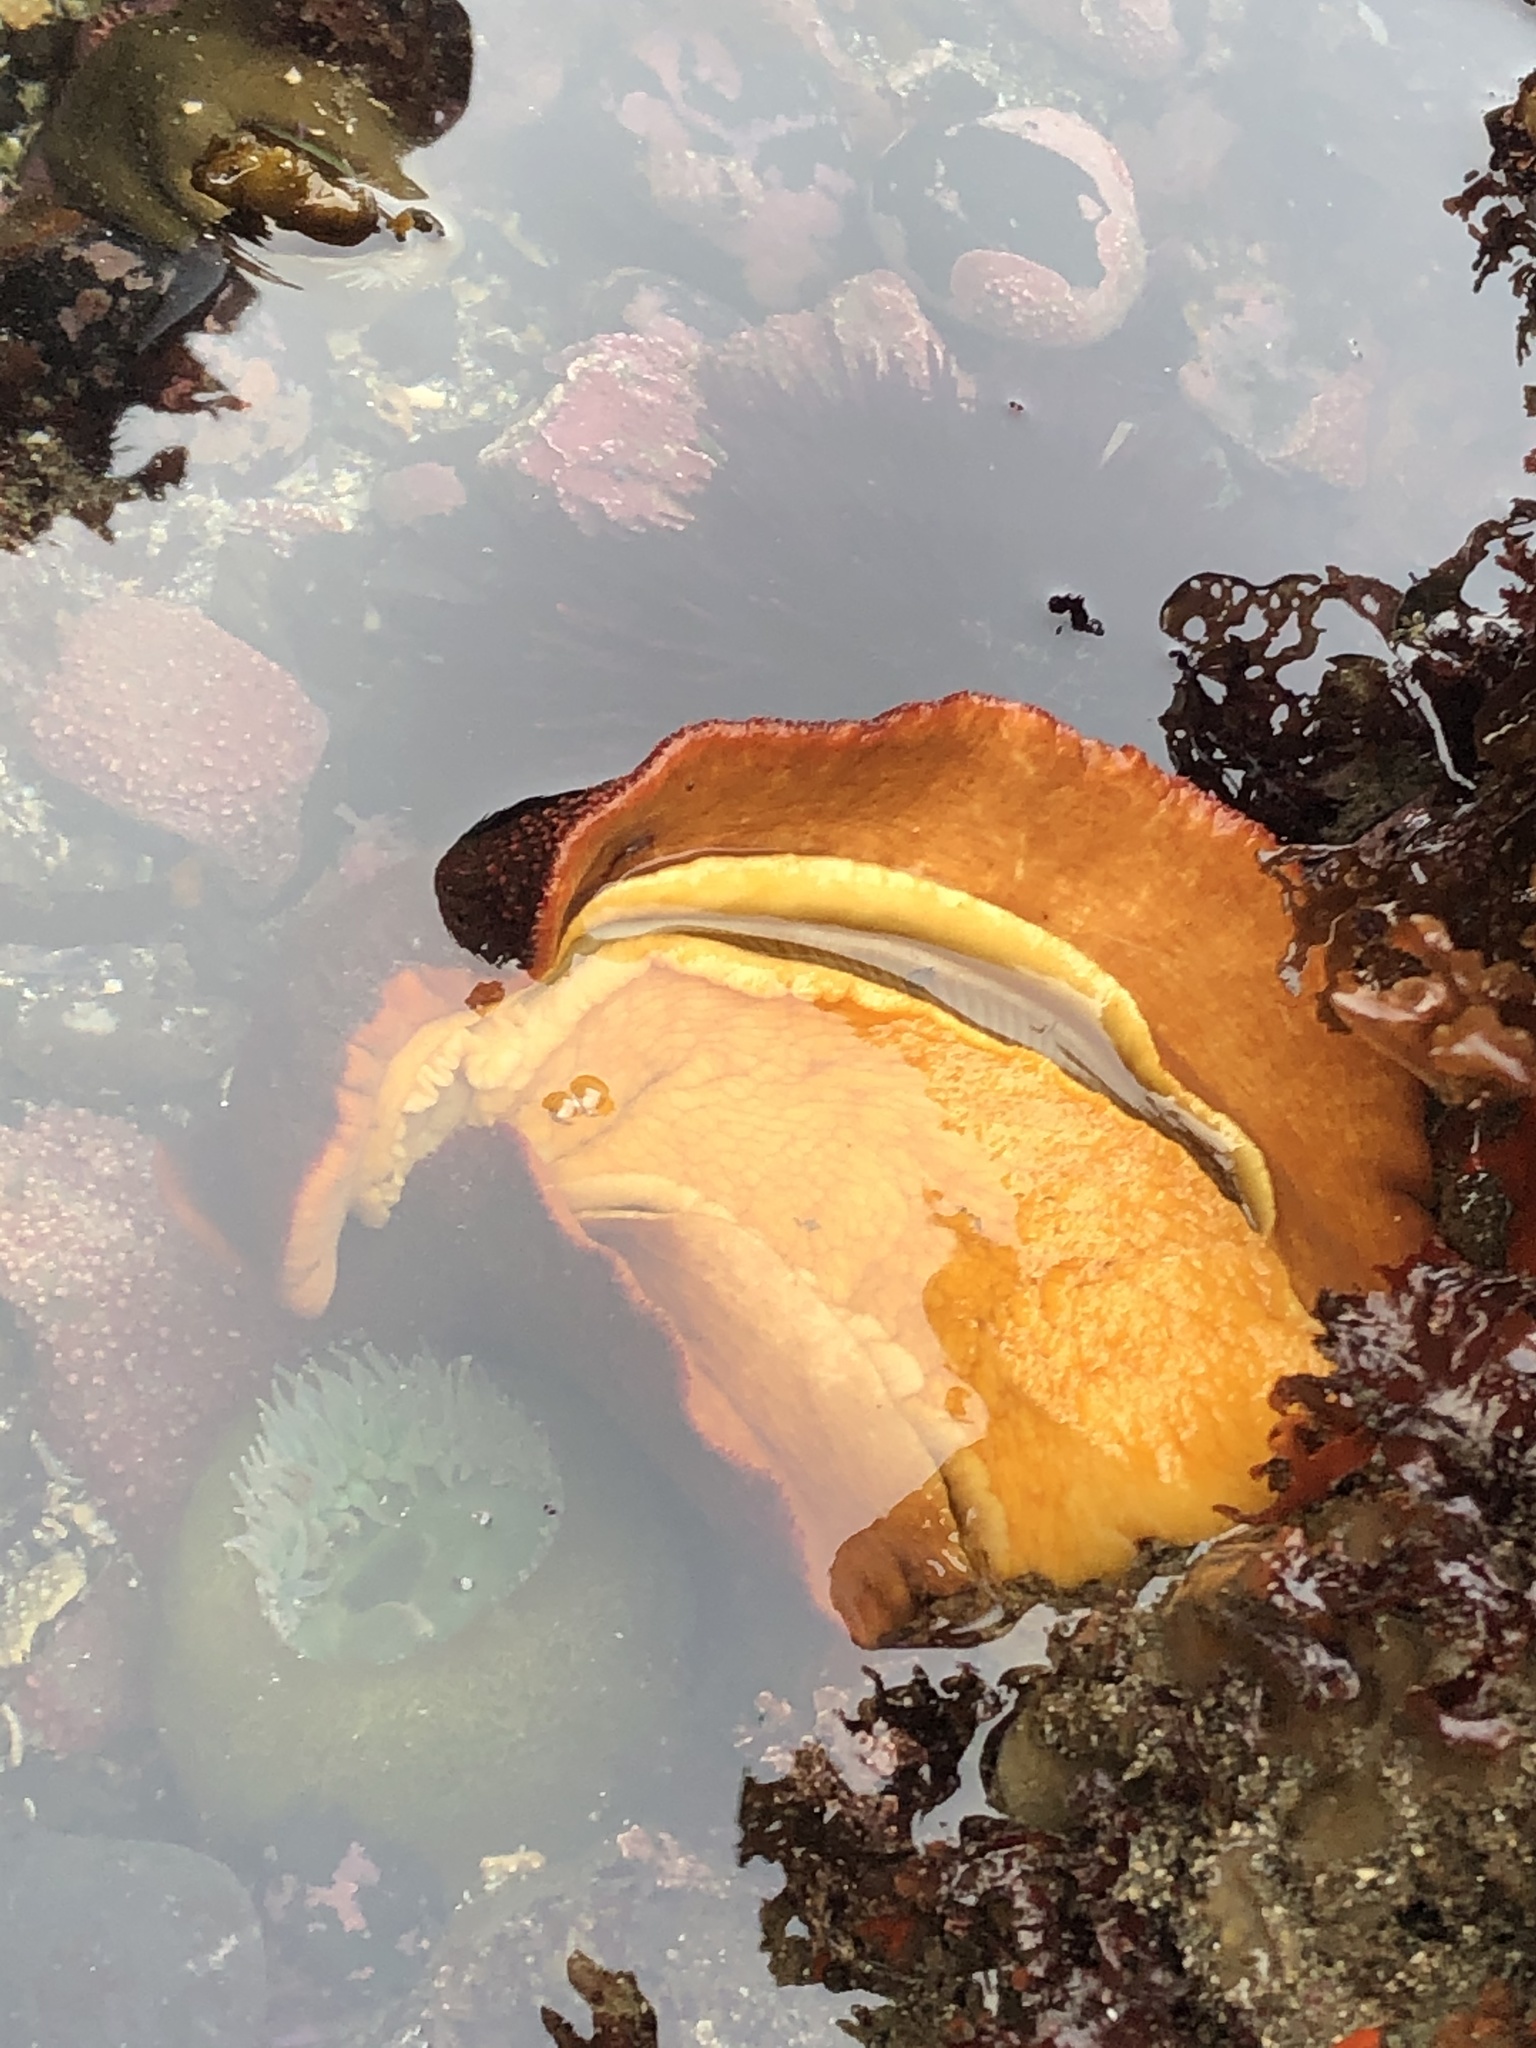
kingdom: Animalia
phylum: Mollusca
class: Polyplacophora
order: Chitonida
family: Acanthochitonidae
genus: Cryptochiton
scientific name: Cryptochiton stelleri
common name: Giant pacific chiton
